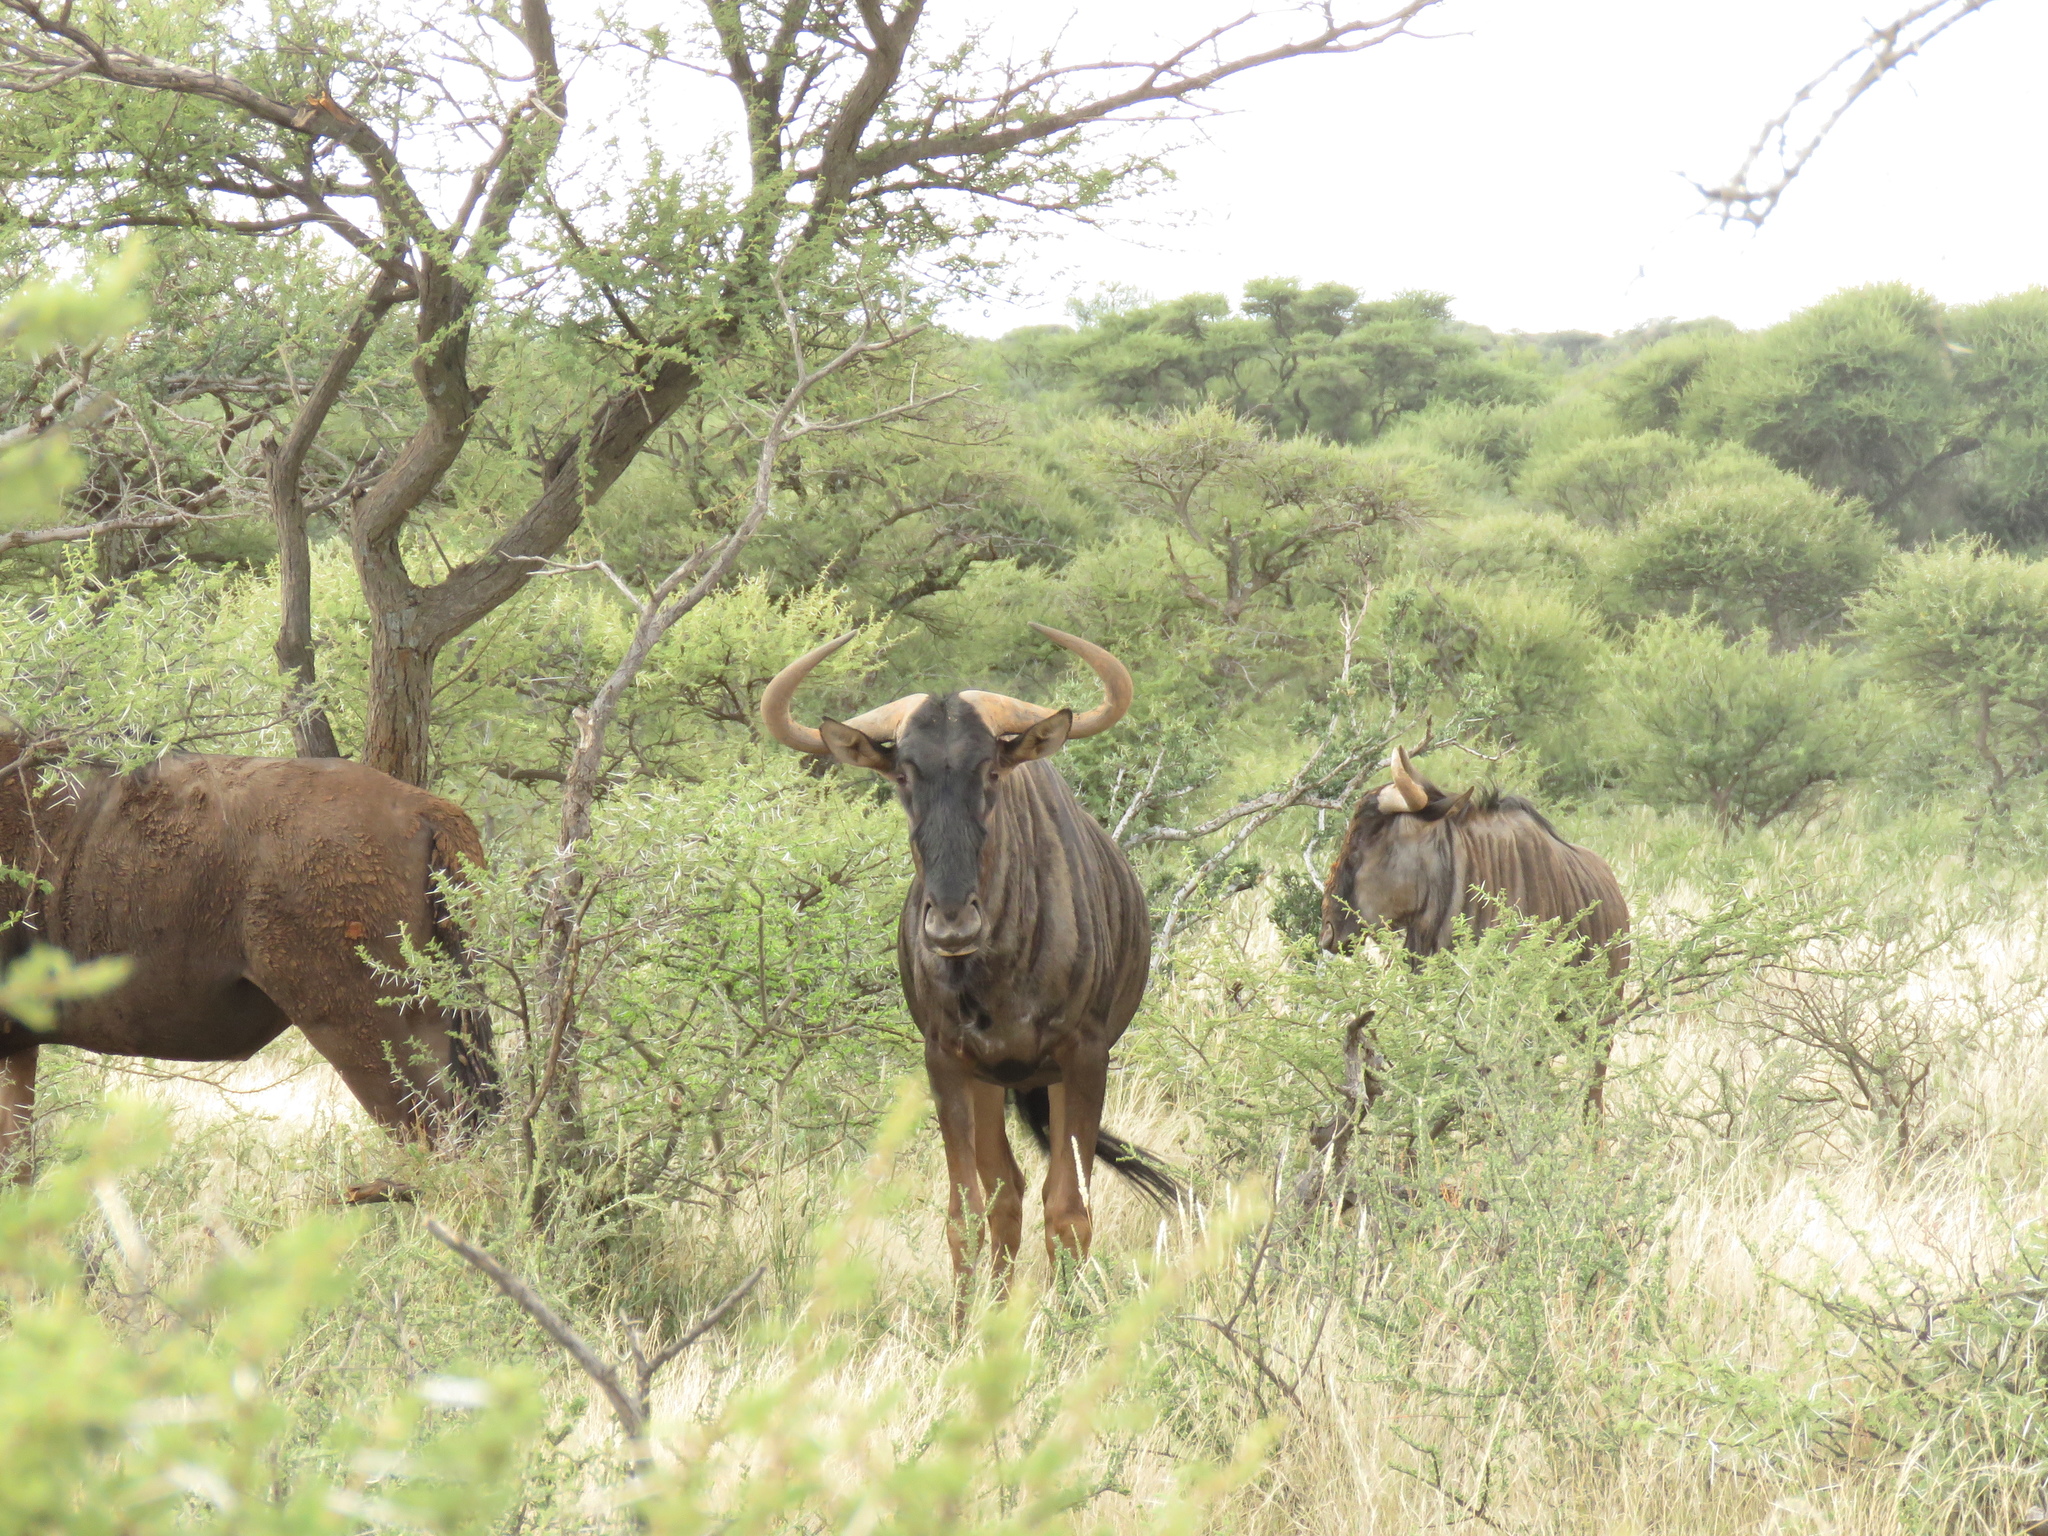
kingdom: Animalia
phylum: Chordata
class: Mammalia
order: Artiodactyla
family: Bovidae
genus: Connochaetes
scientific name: Connochaetes taurinus
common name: Blue wildebeest
